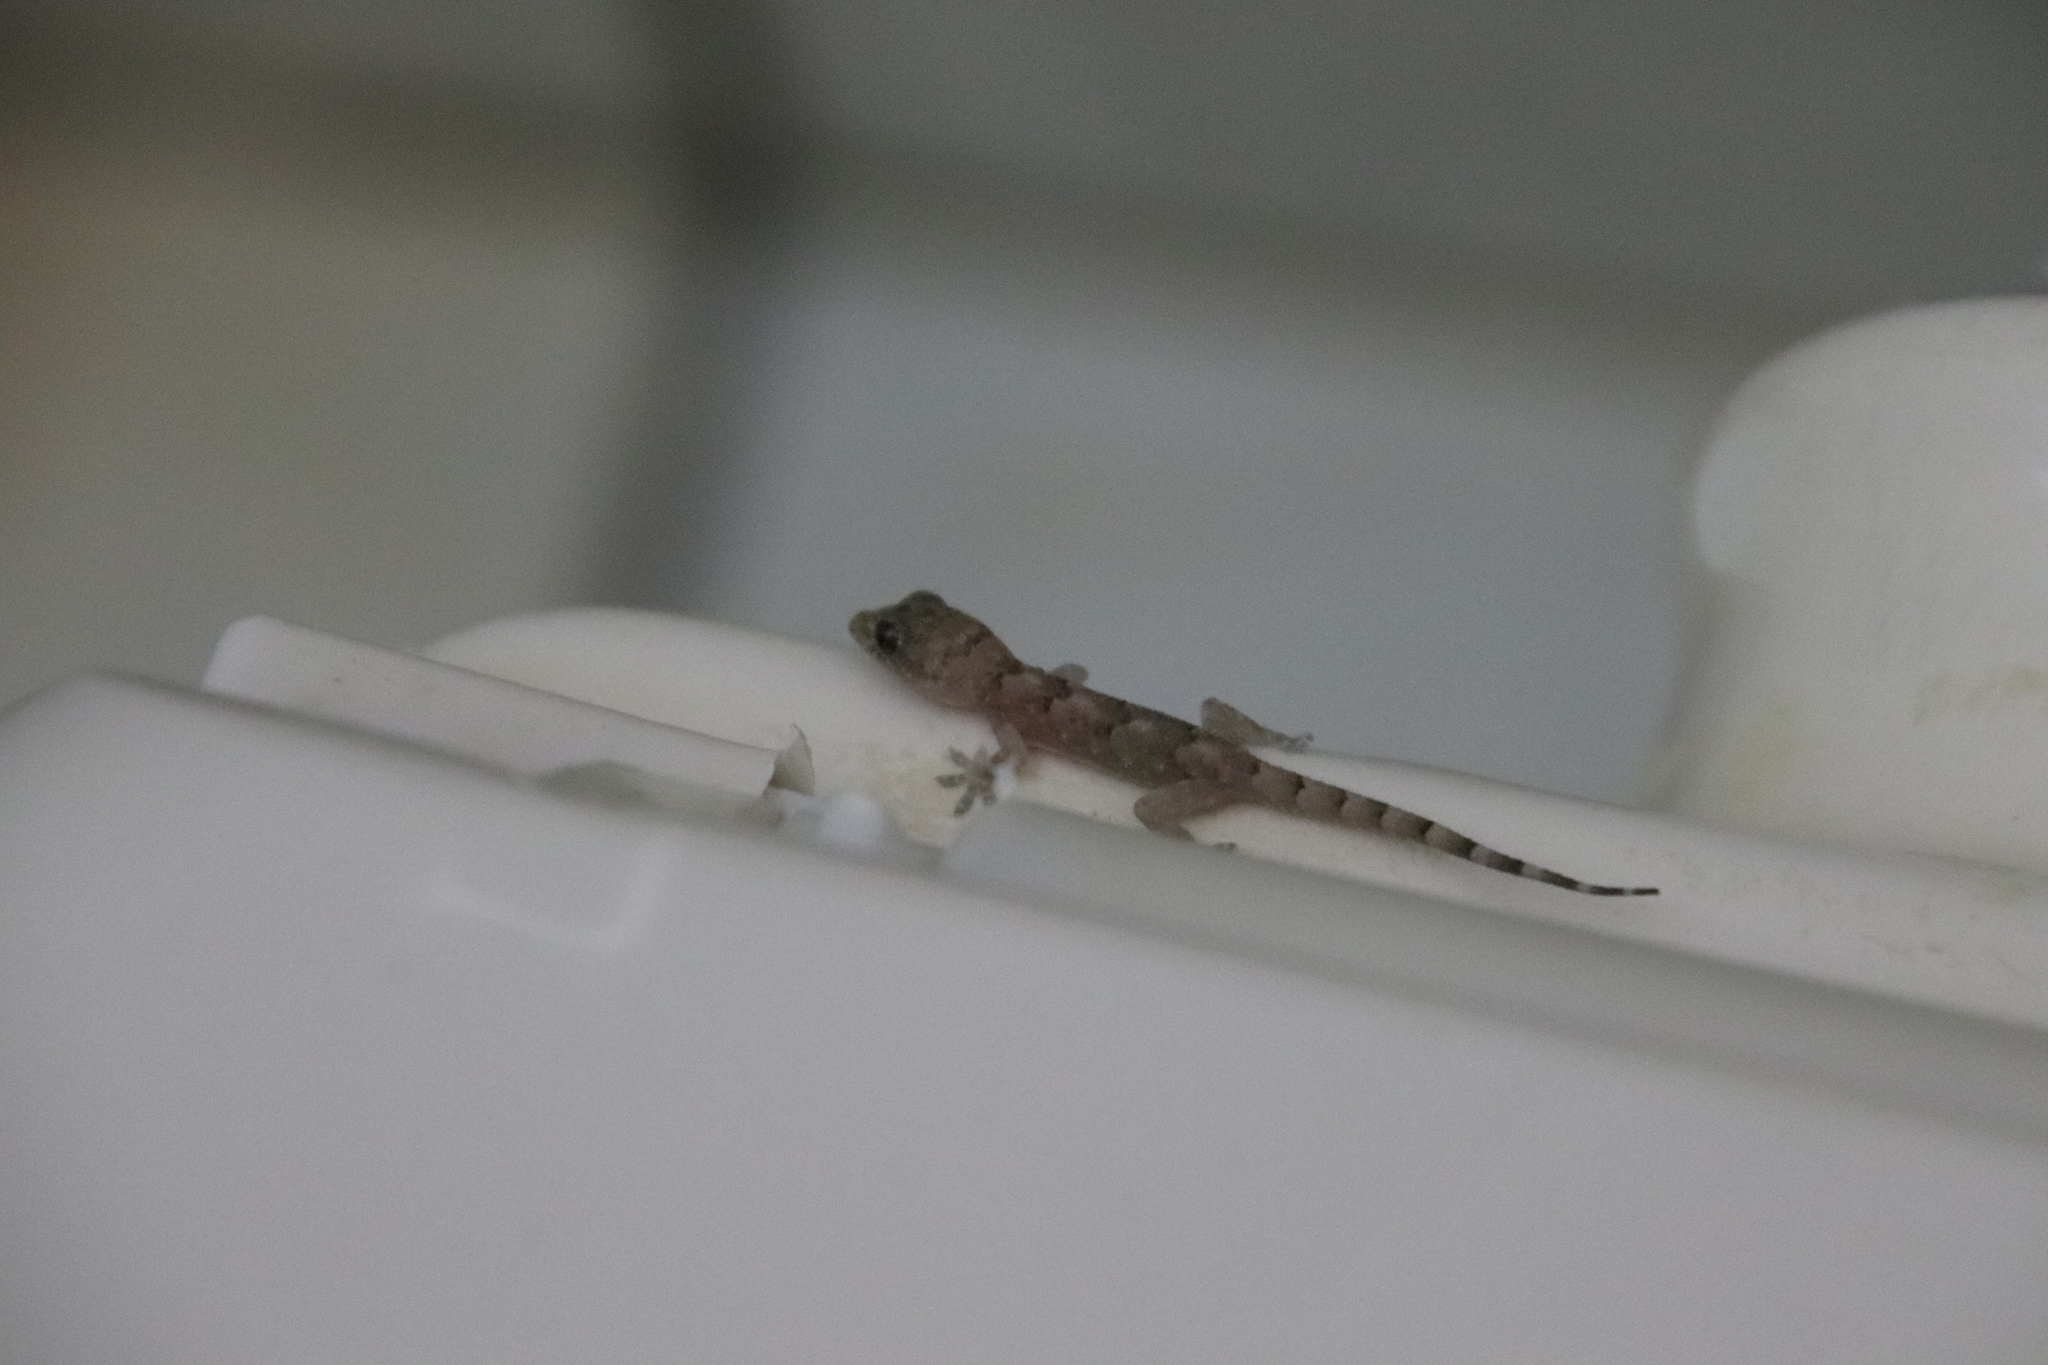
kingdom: Animalia
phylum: Chordata
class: Squamata
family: Gekkonidae
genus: Hemidactylus
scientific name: Hemidactylus mabouia
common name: House gecko
